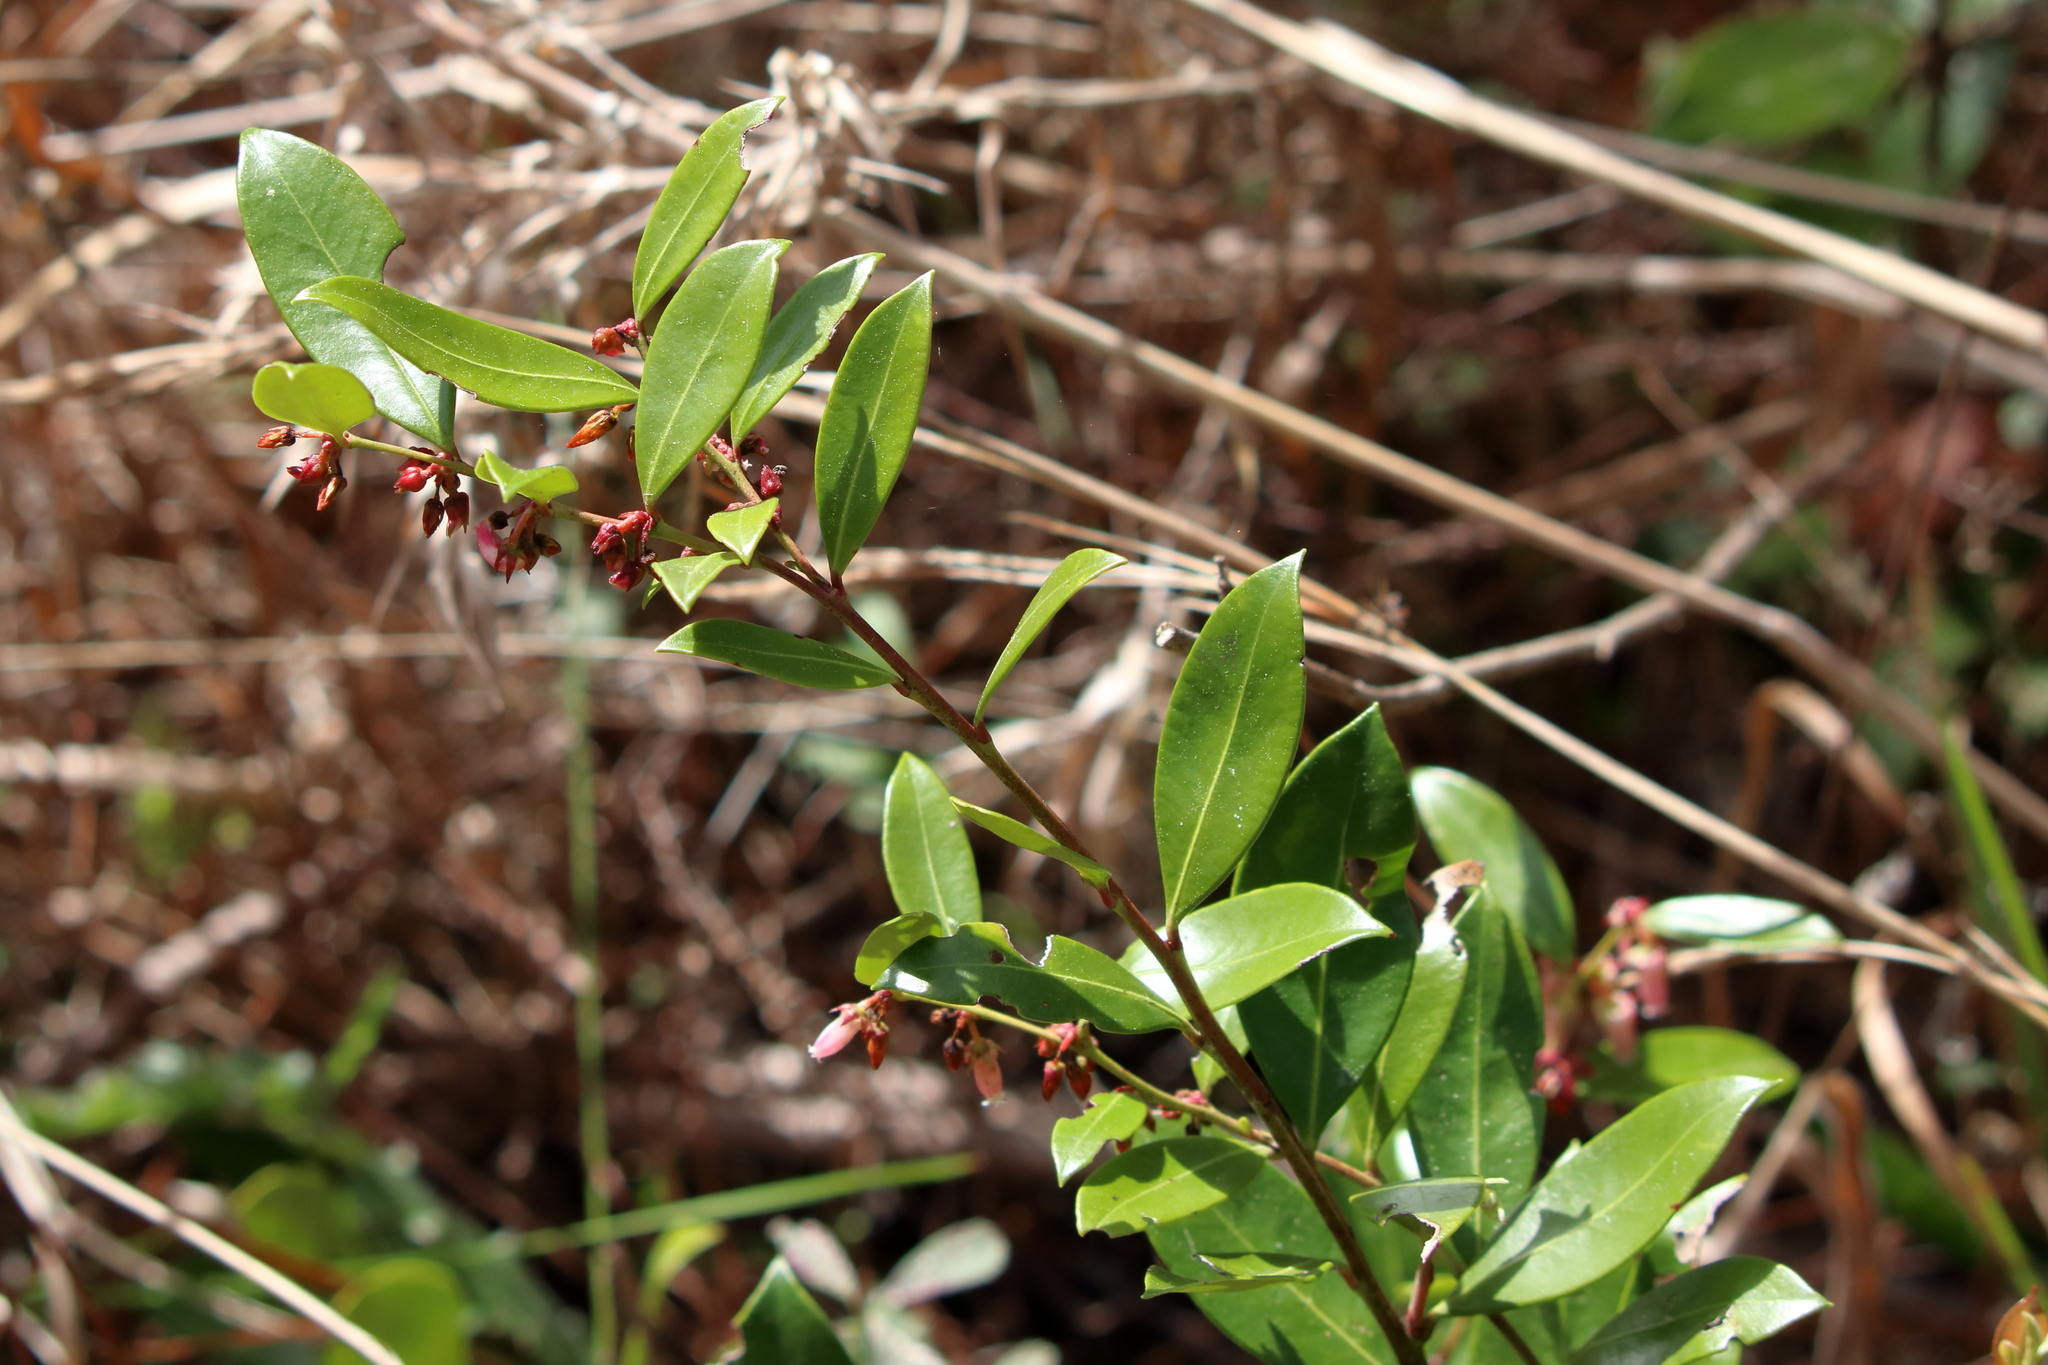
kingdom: Plantae
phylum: Tracheophyta
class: Magnoliopsida
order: Ericales
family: Ericaceae
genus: Lyonia
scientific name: Lyonia lucida
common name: Fetterbush
